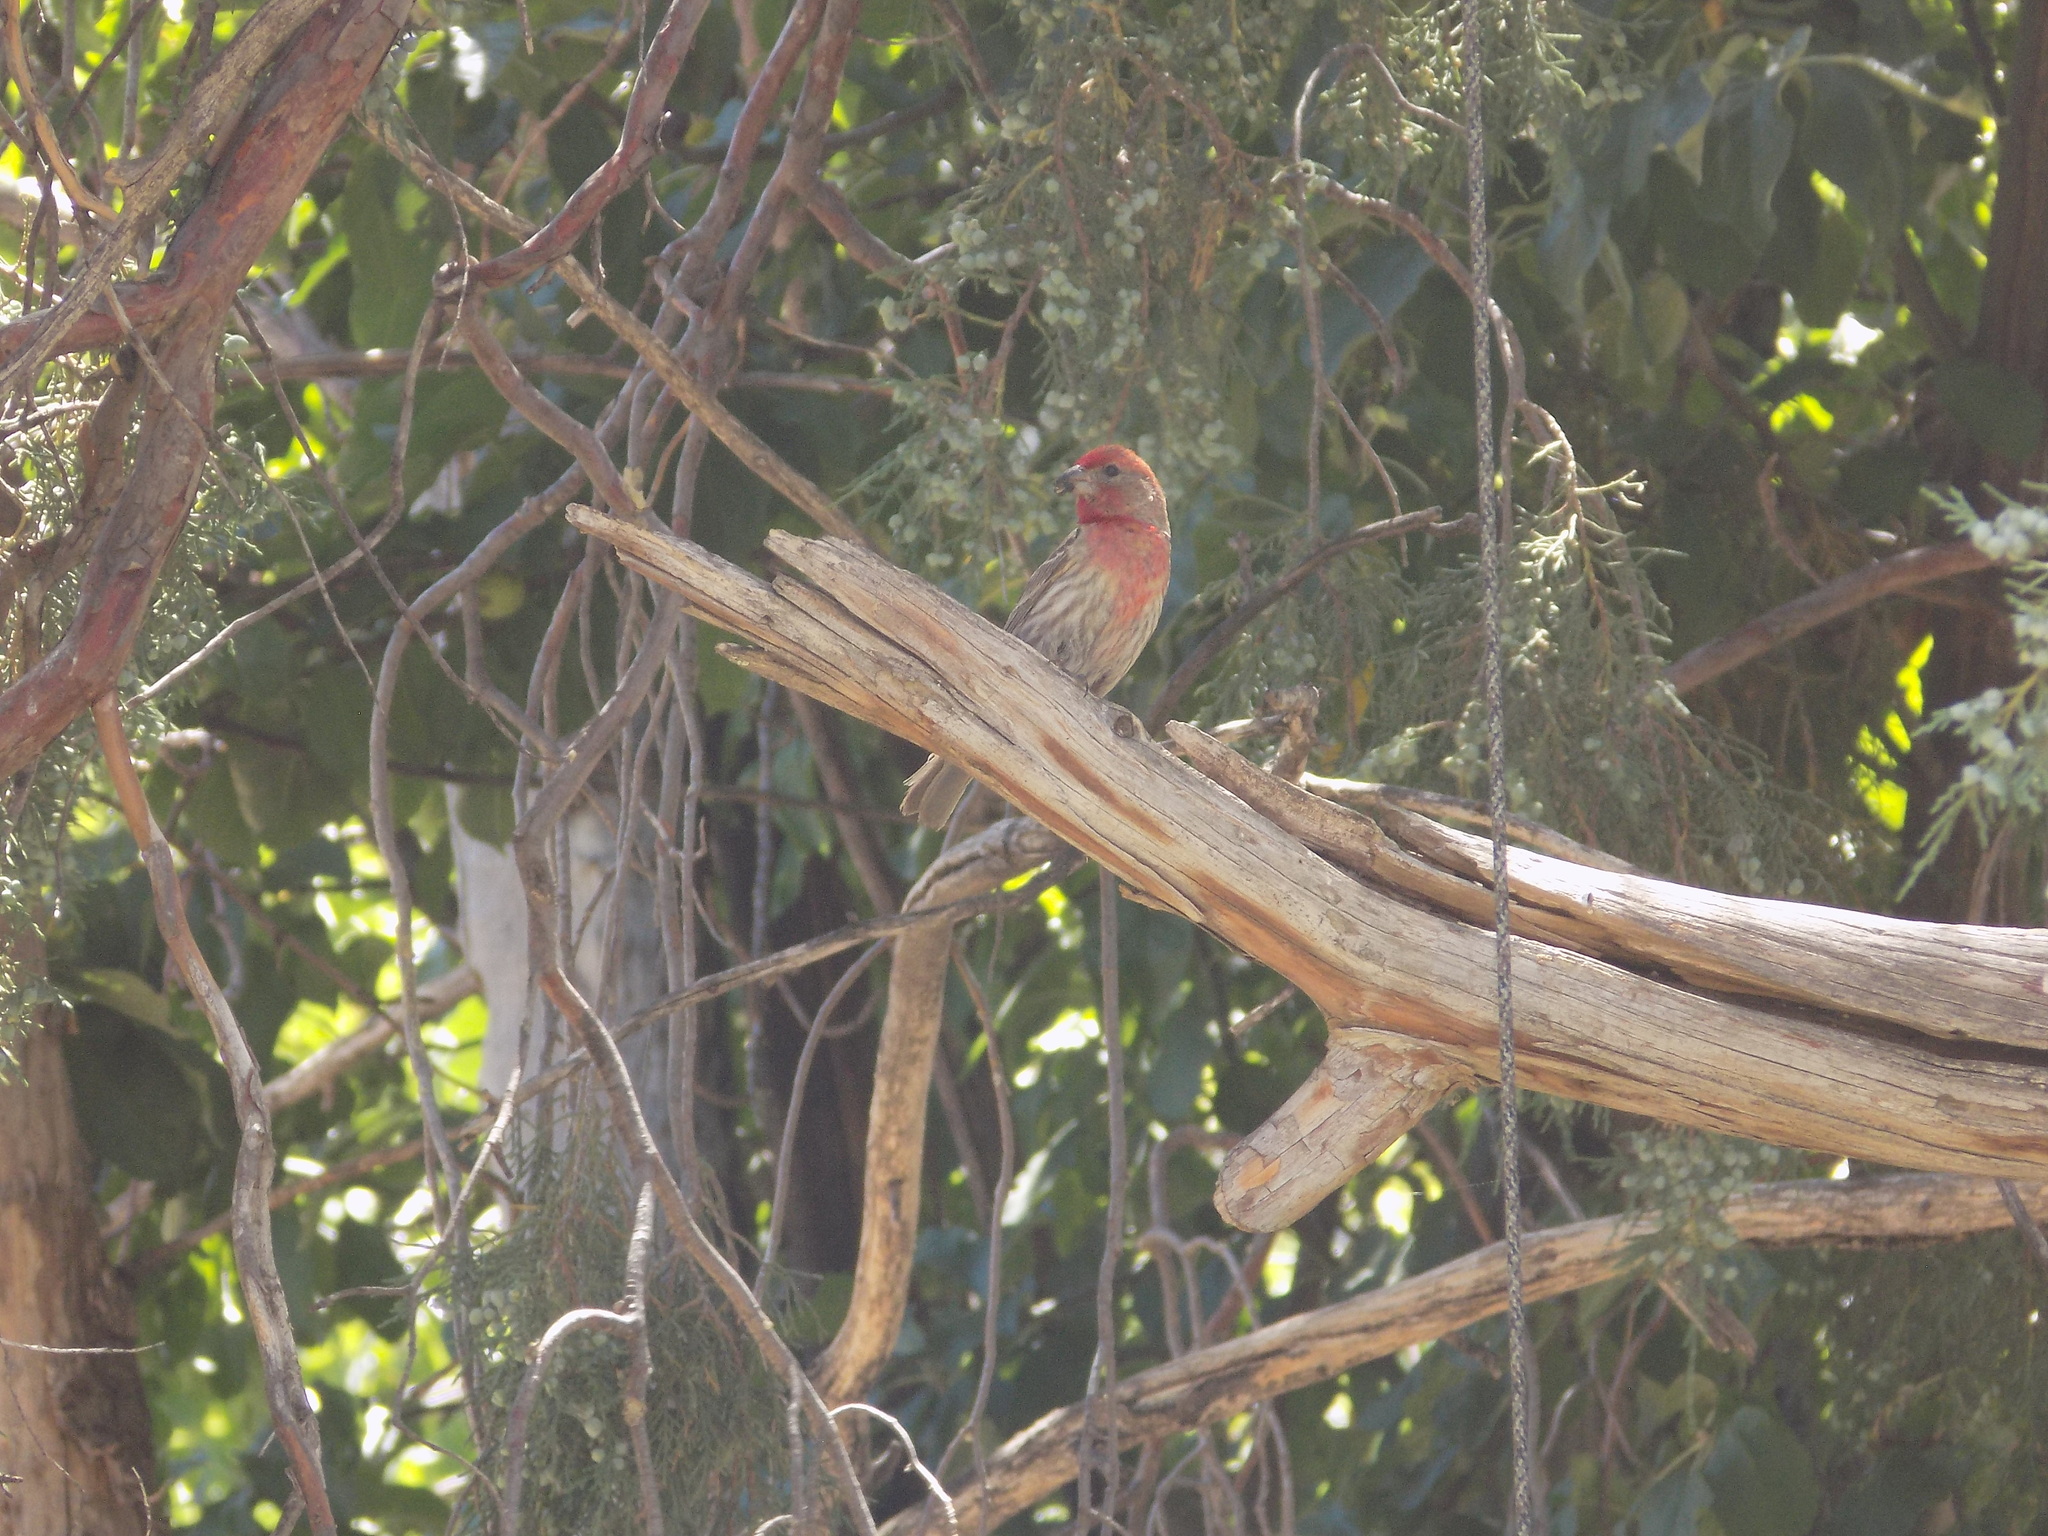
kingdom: Animalia
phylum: Chordata
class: Aves
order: Passeriformes
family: Fringillidae
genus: Haemorhous
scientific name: Haemorhous mexicanus
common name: House finch
